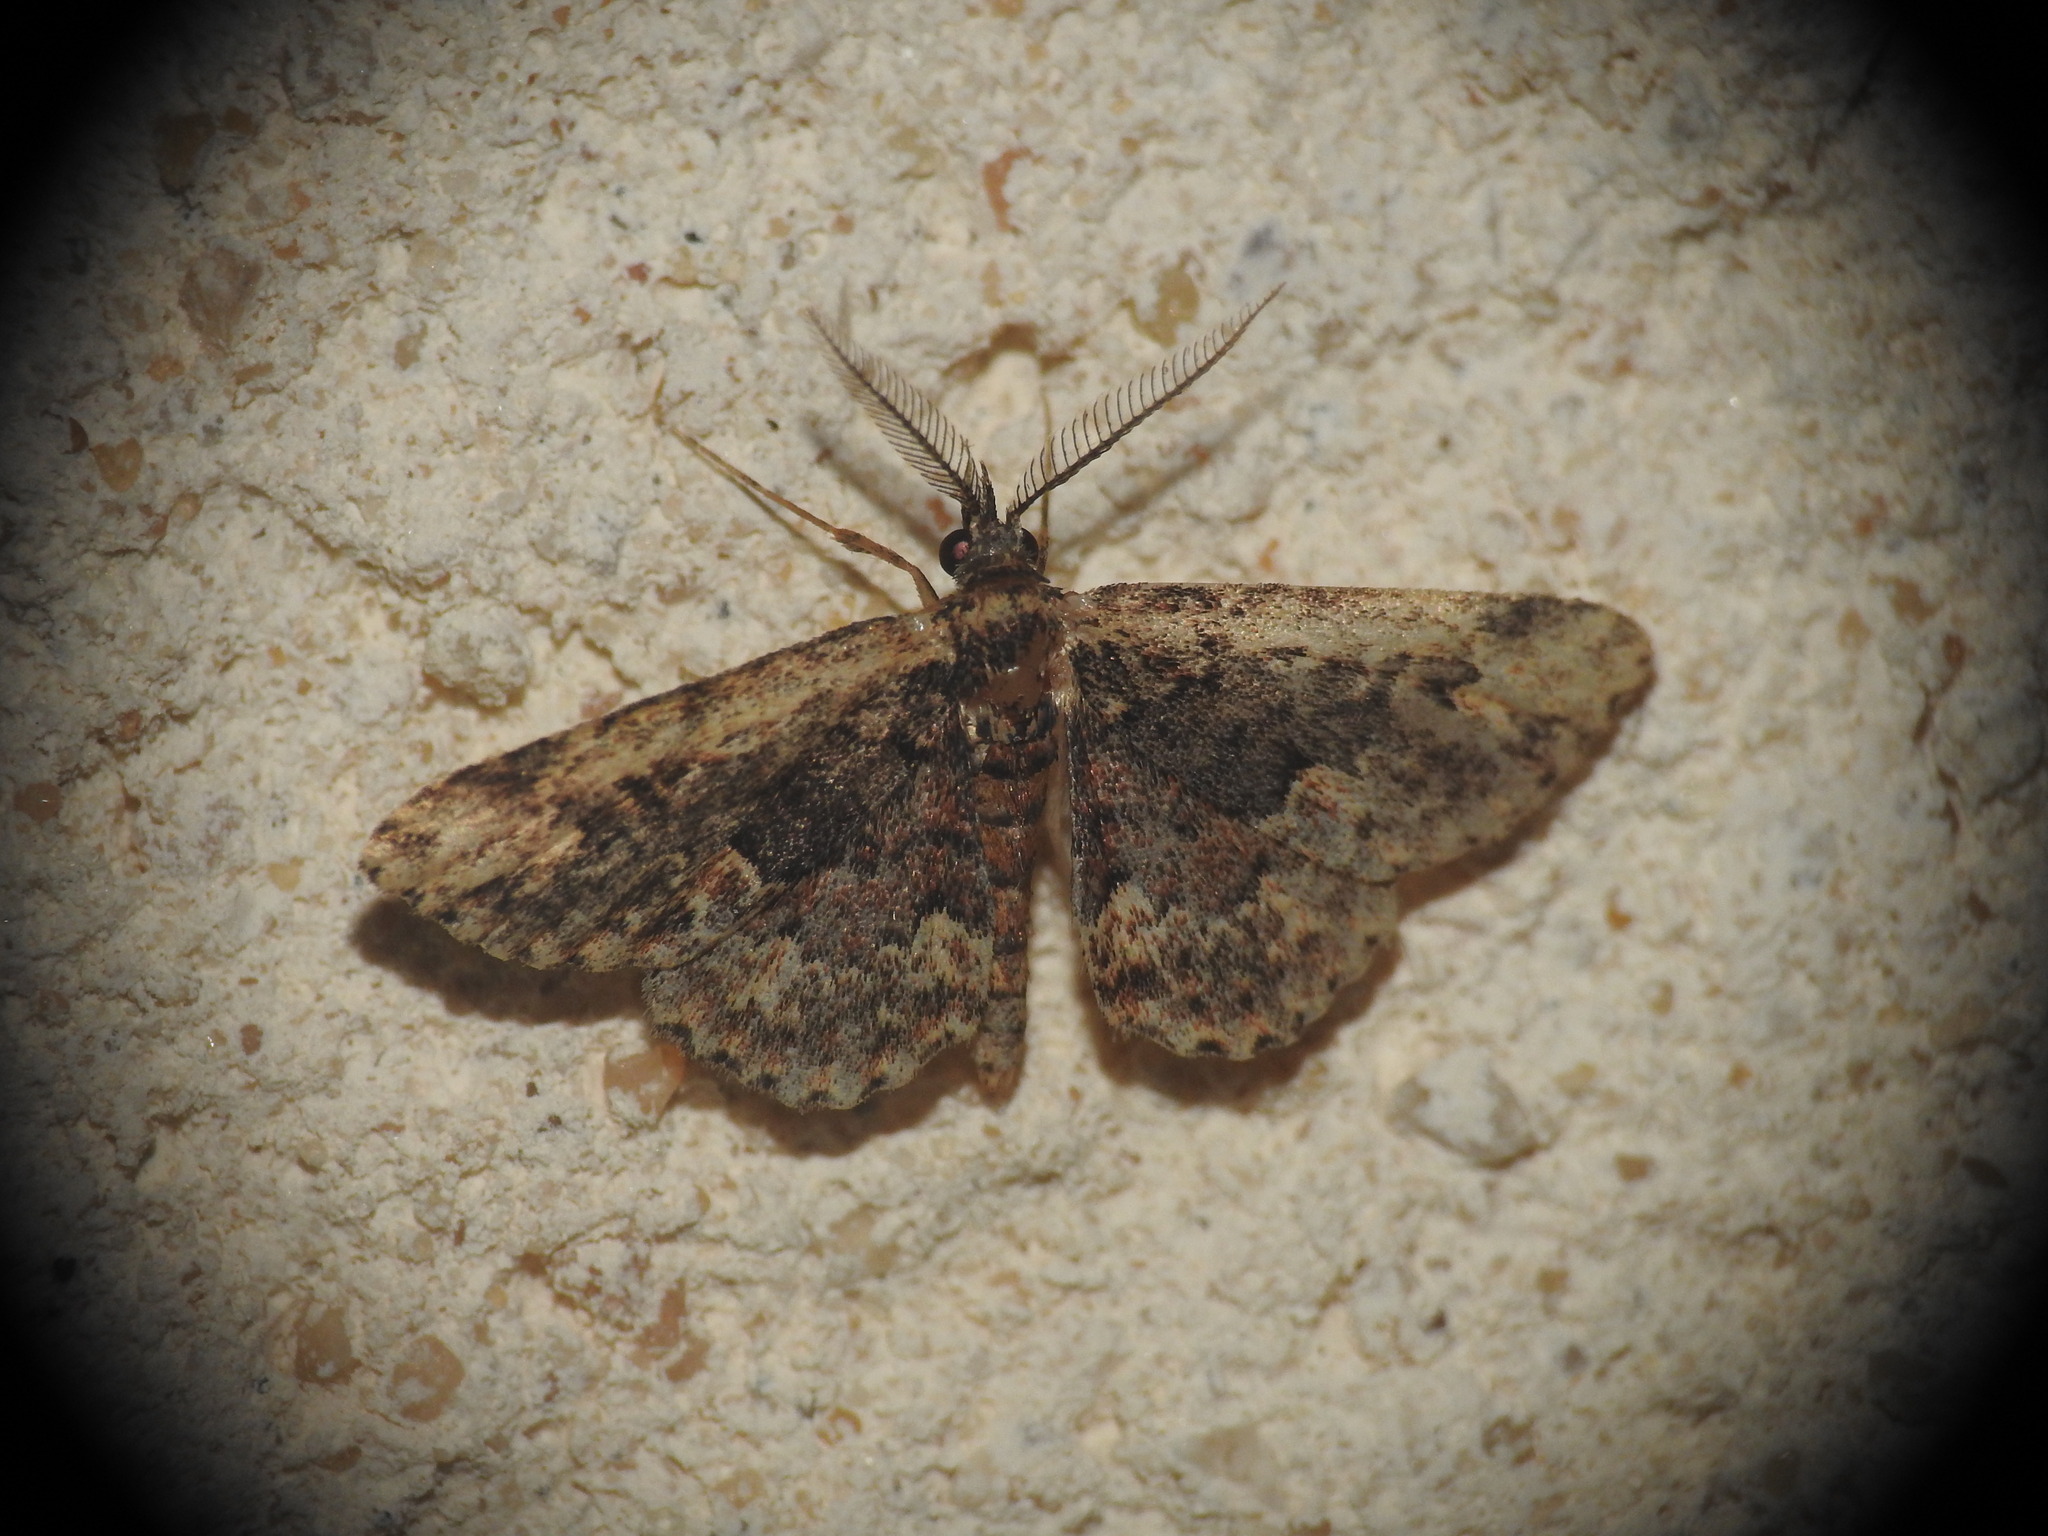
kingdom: Animalia
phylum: Arthropoda
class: Insecta
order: Lepidoptera
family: Erebidae
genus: Parascotia
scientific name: Parascotia nisseni
